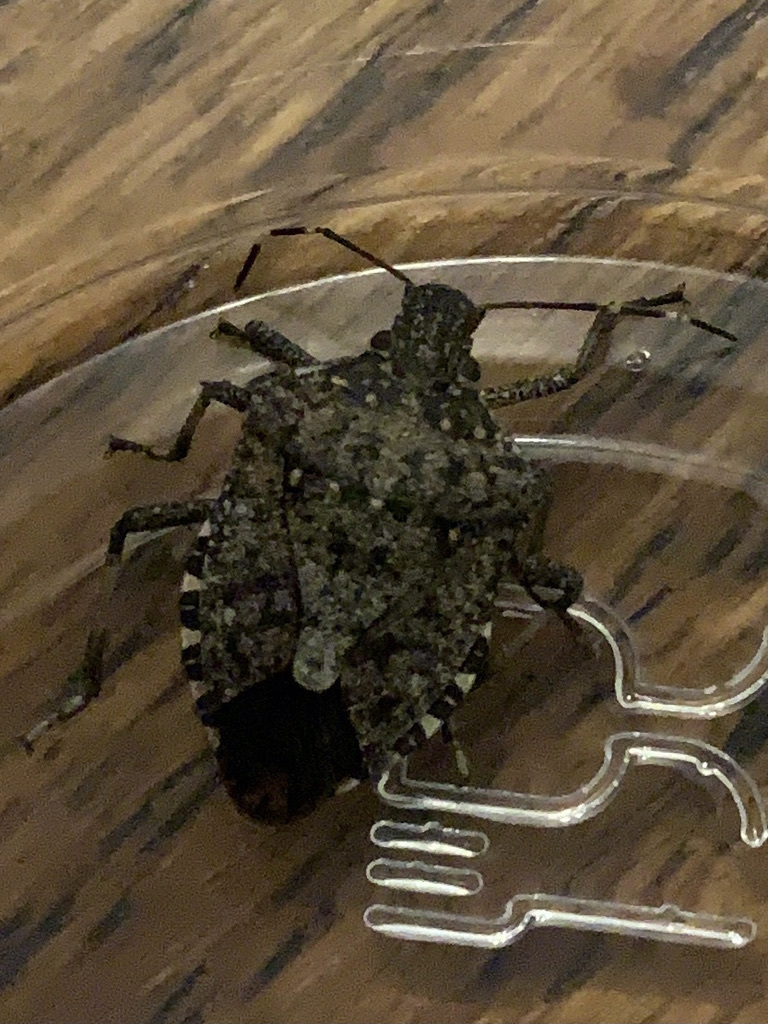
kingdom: Animalia
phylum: Arthropoda
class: Insecta
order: Hemiptera
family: Pentatomidae
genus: Halyomorpha
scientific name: Halyomorpha halys
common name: Brown marmorated stink bug
